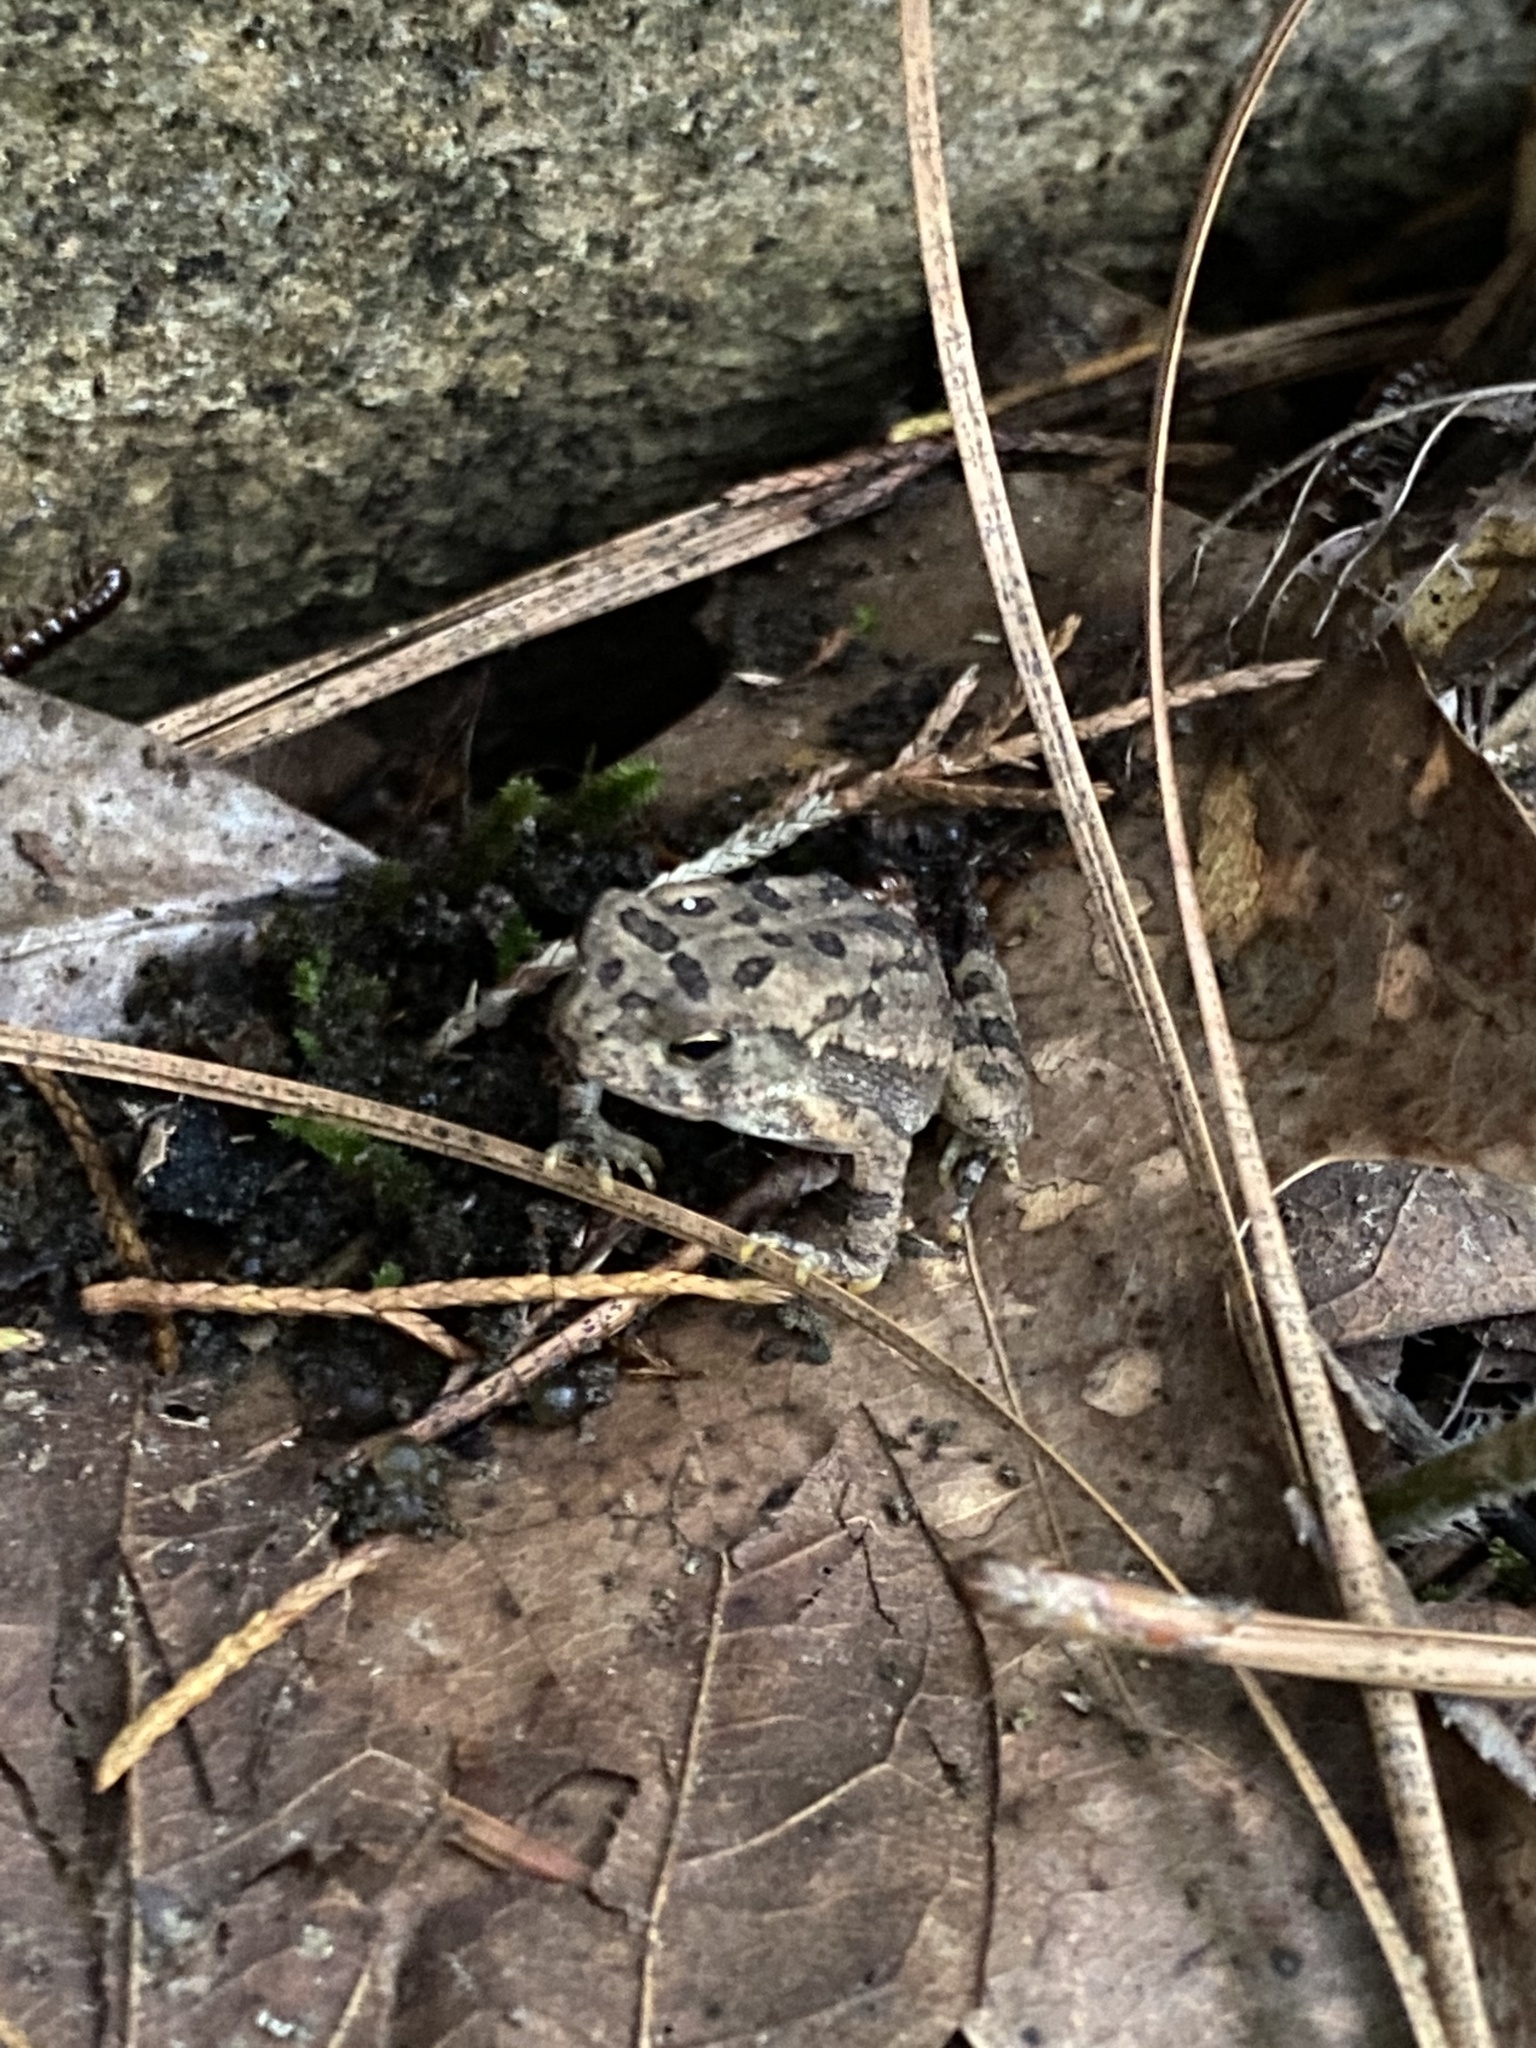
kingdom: Animalia
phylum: Chordata
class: Amphibia
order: Anura
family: Bufonidae
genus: Anaxyrus
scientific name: Anaxyrus fowleri
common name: Fowler's toad
